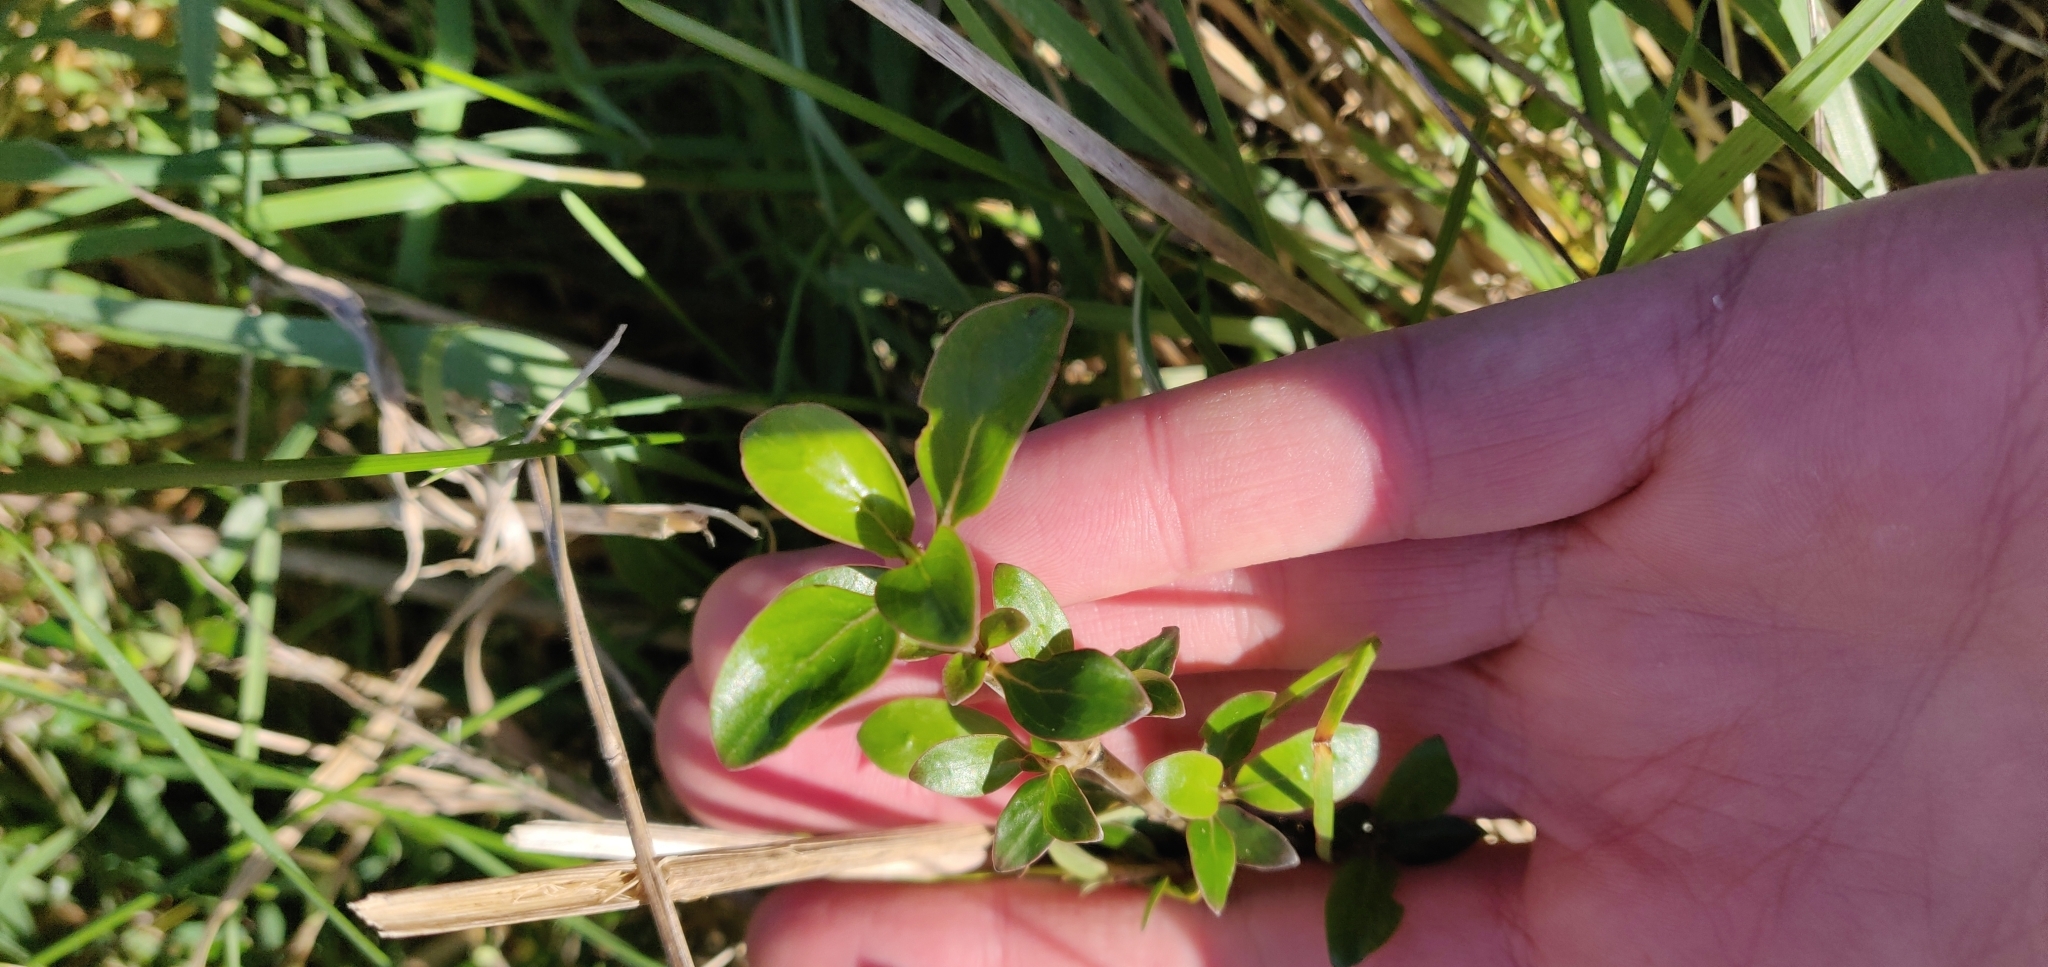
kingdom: Plantae
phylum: Tracheophyta
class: Magnoliopsida
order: Gentianales
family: Rubiaceae
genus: Coprosma
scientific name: Coprosma cunninghamii
